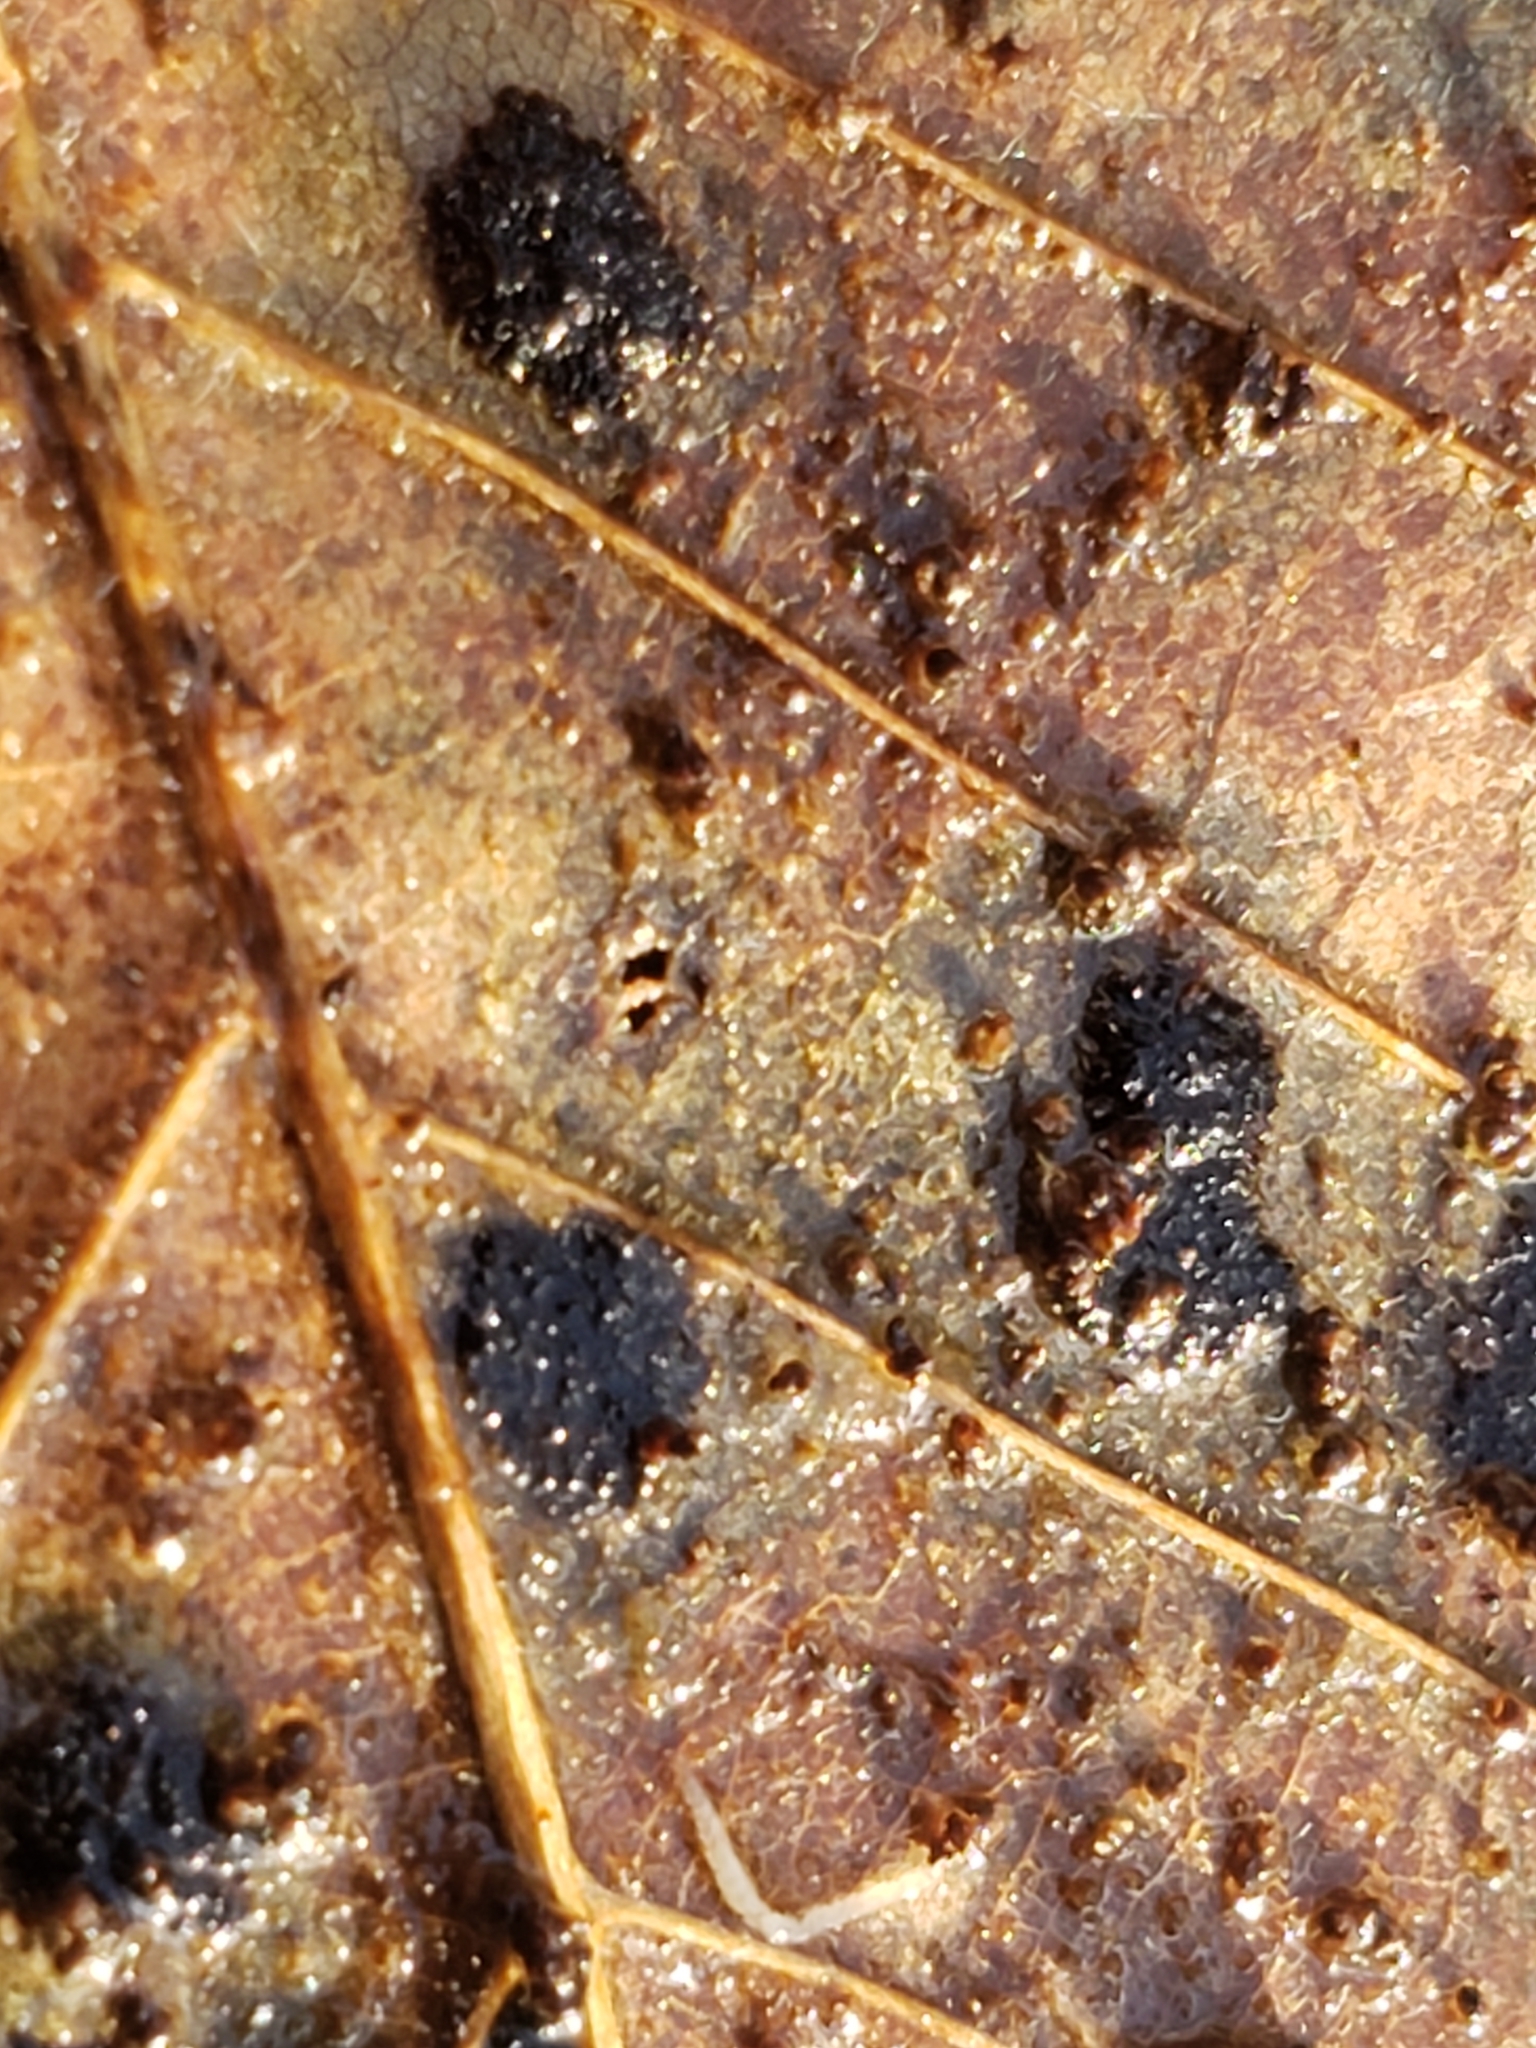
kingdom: Animalia
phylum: Arthropoda
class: Arachnida
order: Trombidiformes
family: Eriophyidae
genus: Acalitus
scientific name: Acalitus
